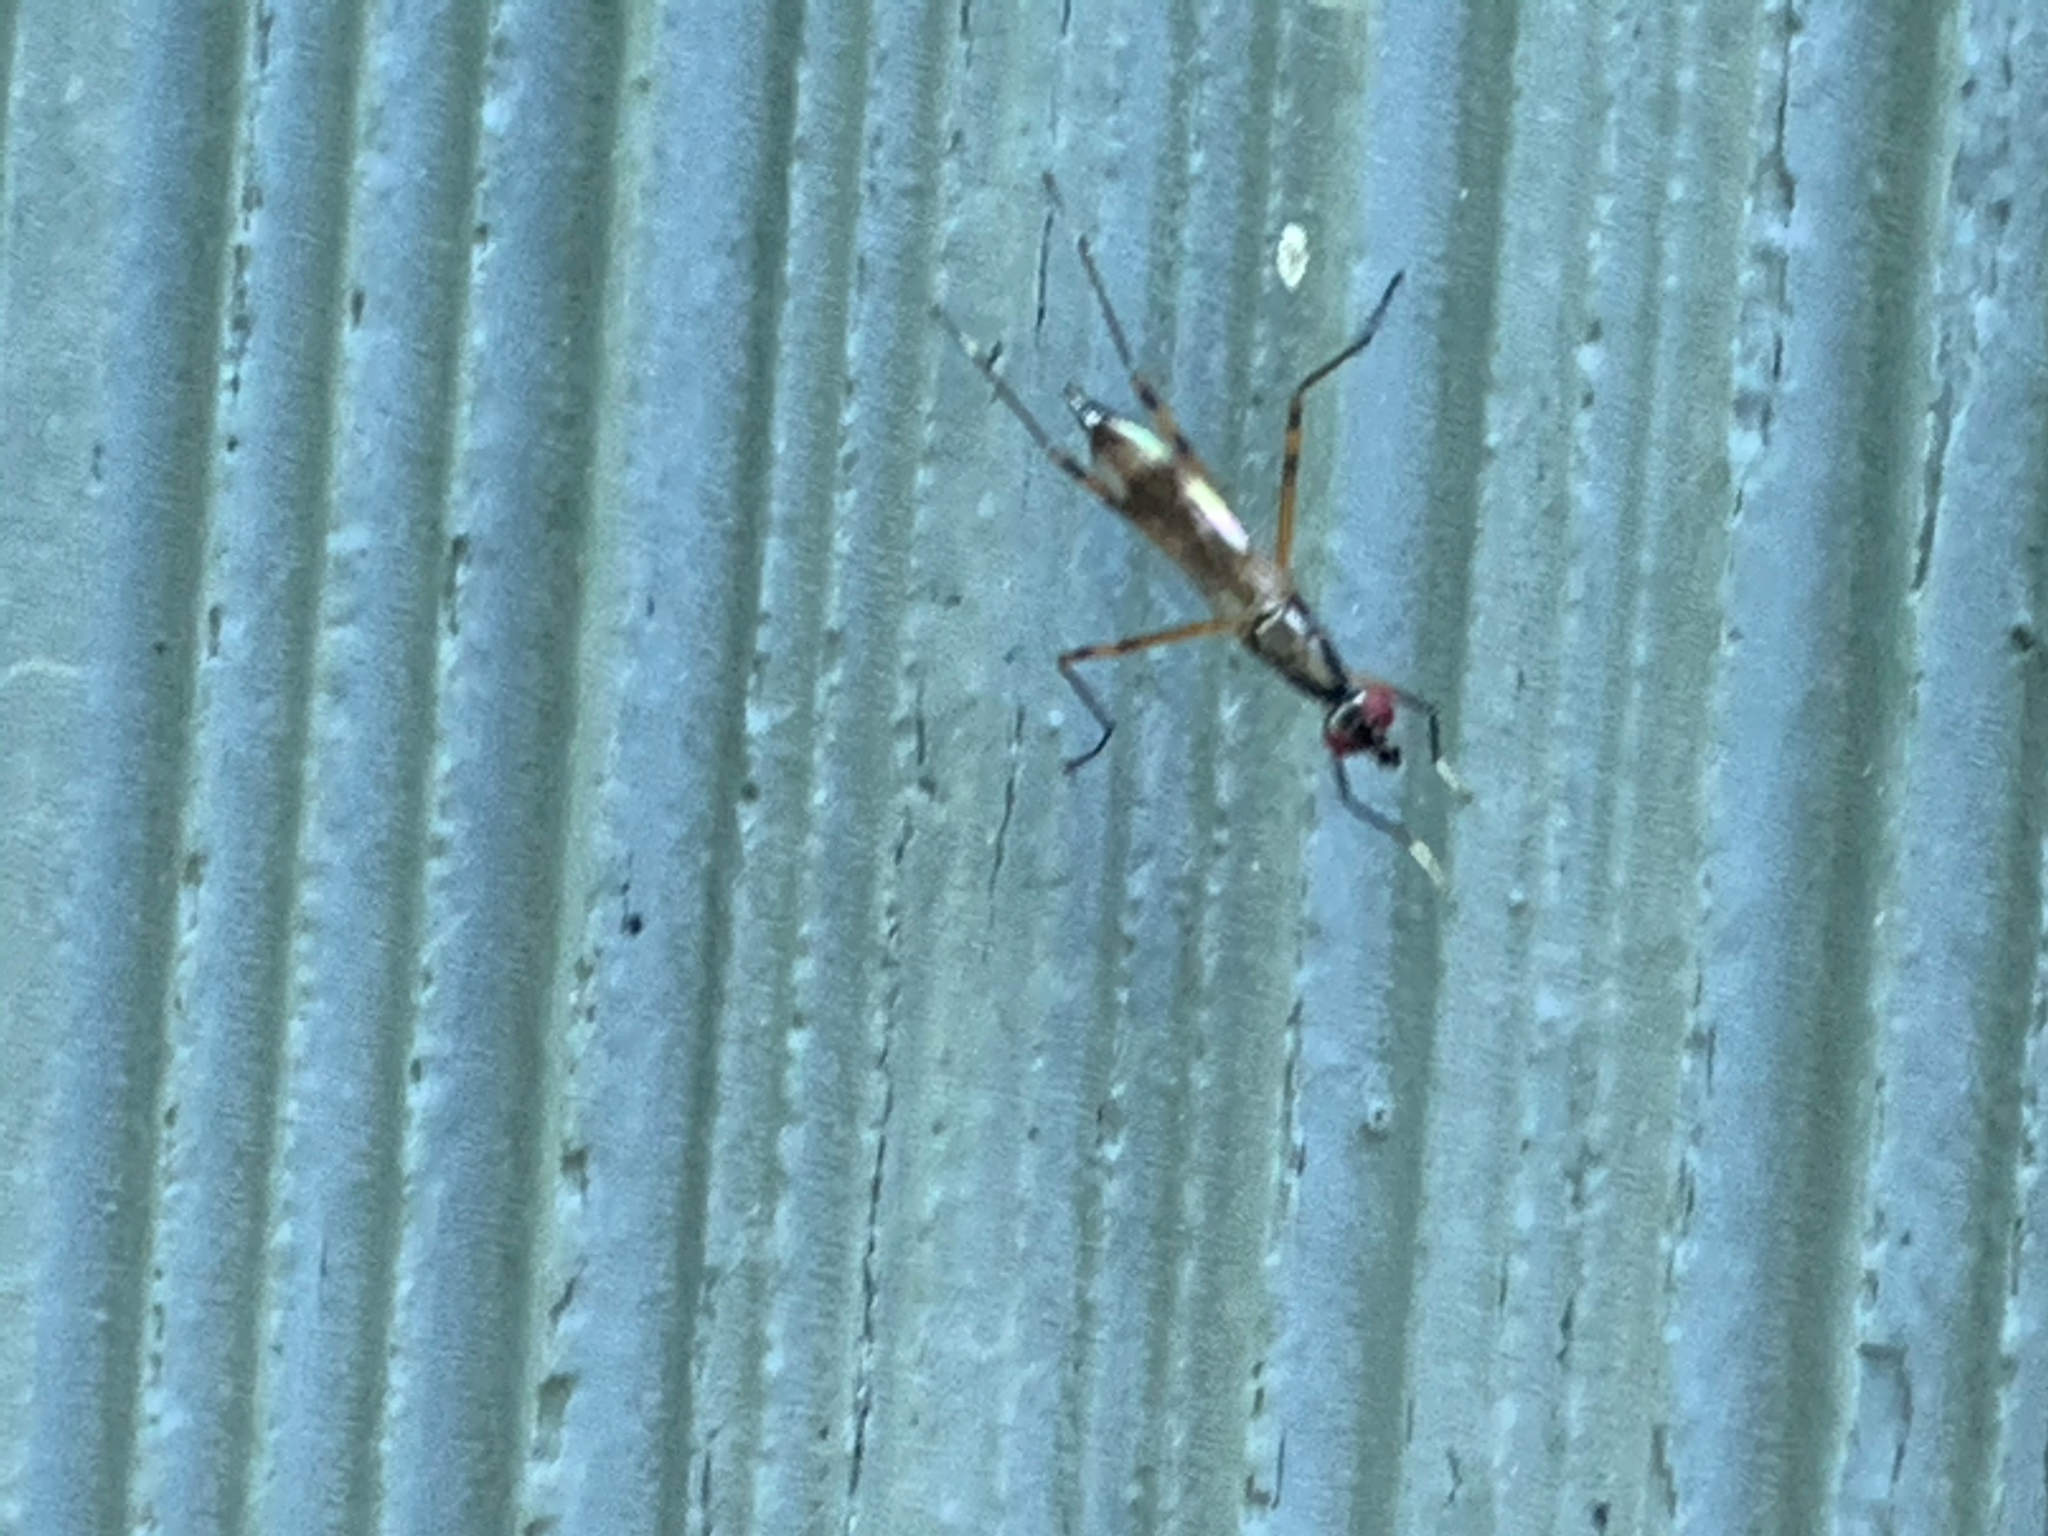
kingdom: Animalia
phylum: Arthropoda
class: Insecta
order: Diptera
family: Micropezidae
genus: Rainieria
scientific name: Rainieria antennaepes
